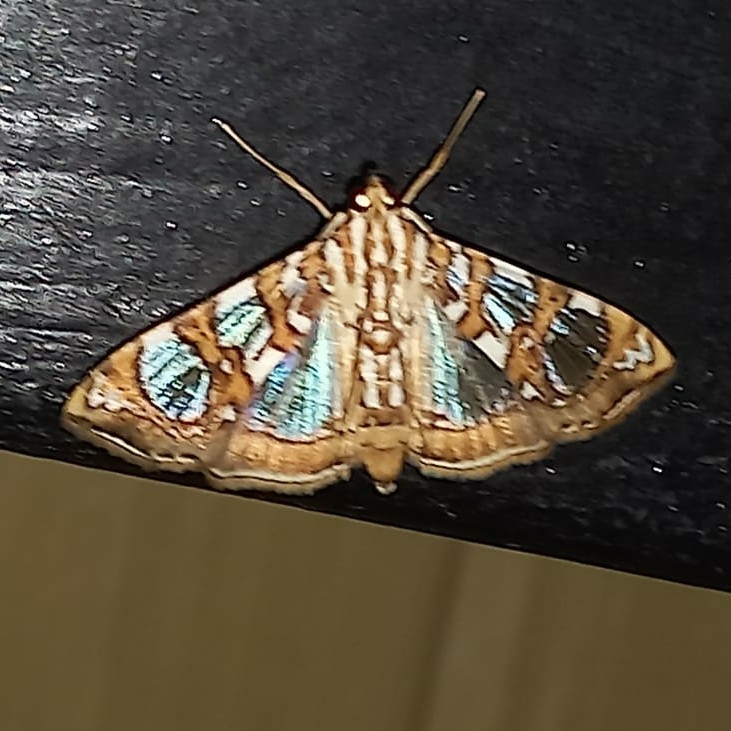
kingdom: Animalia
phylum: Arthropoda
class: Insecta
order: Lepidoptera
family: Crambidae
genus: Glyphodes
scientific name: Glyphodes sibillalis
